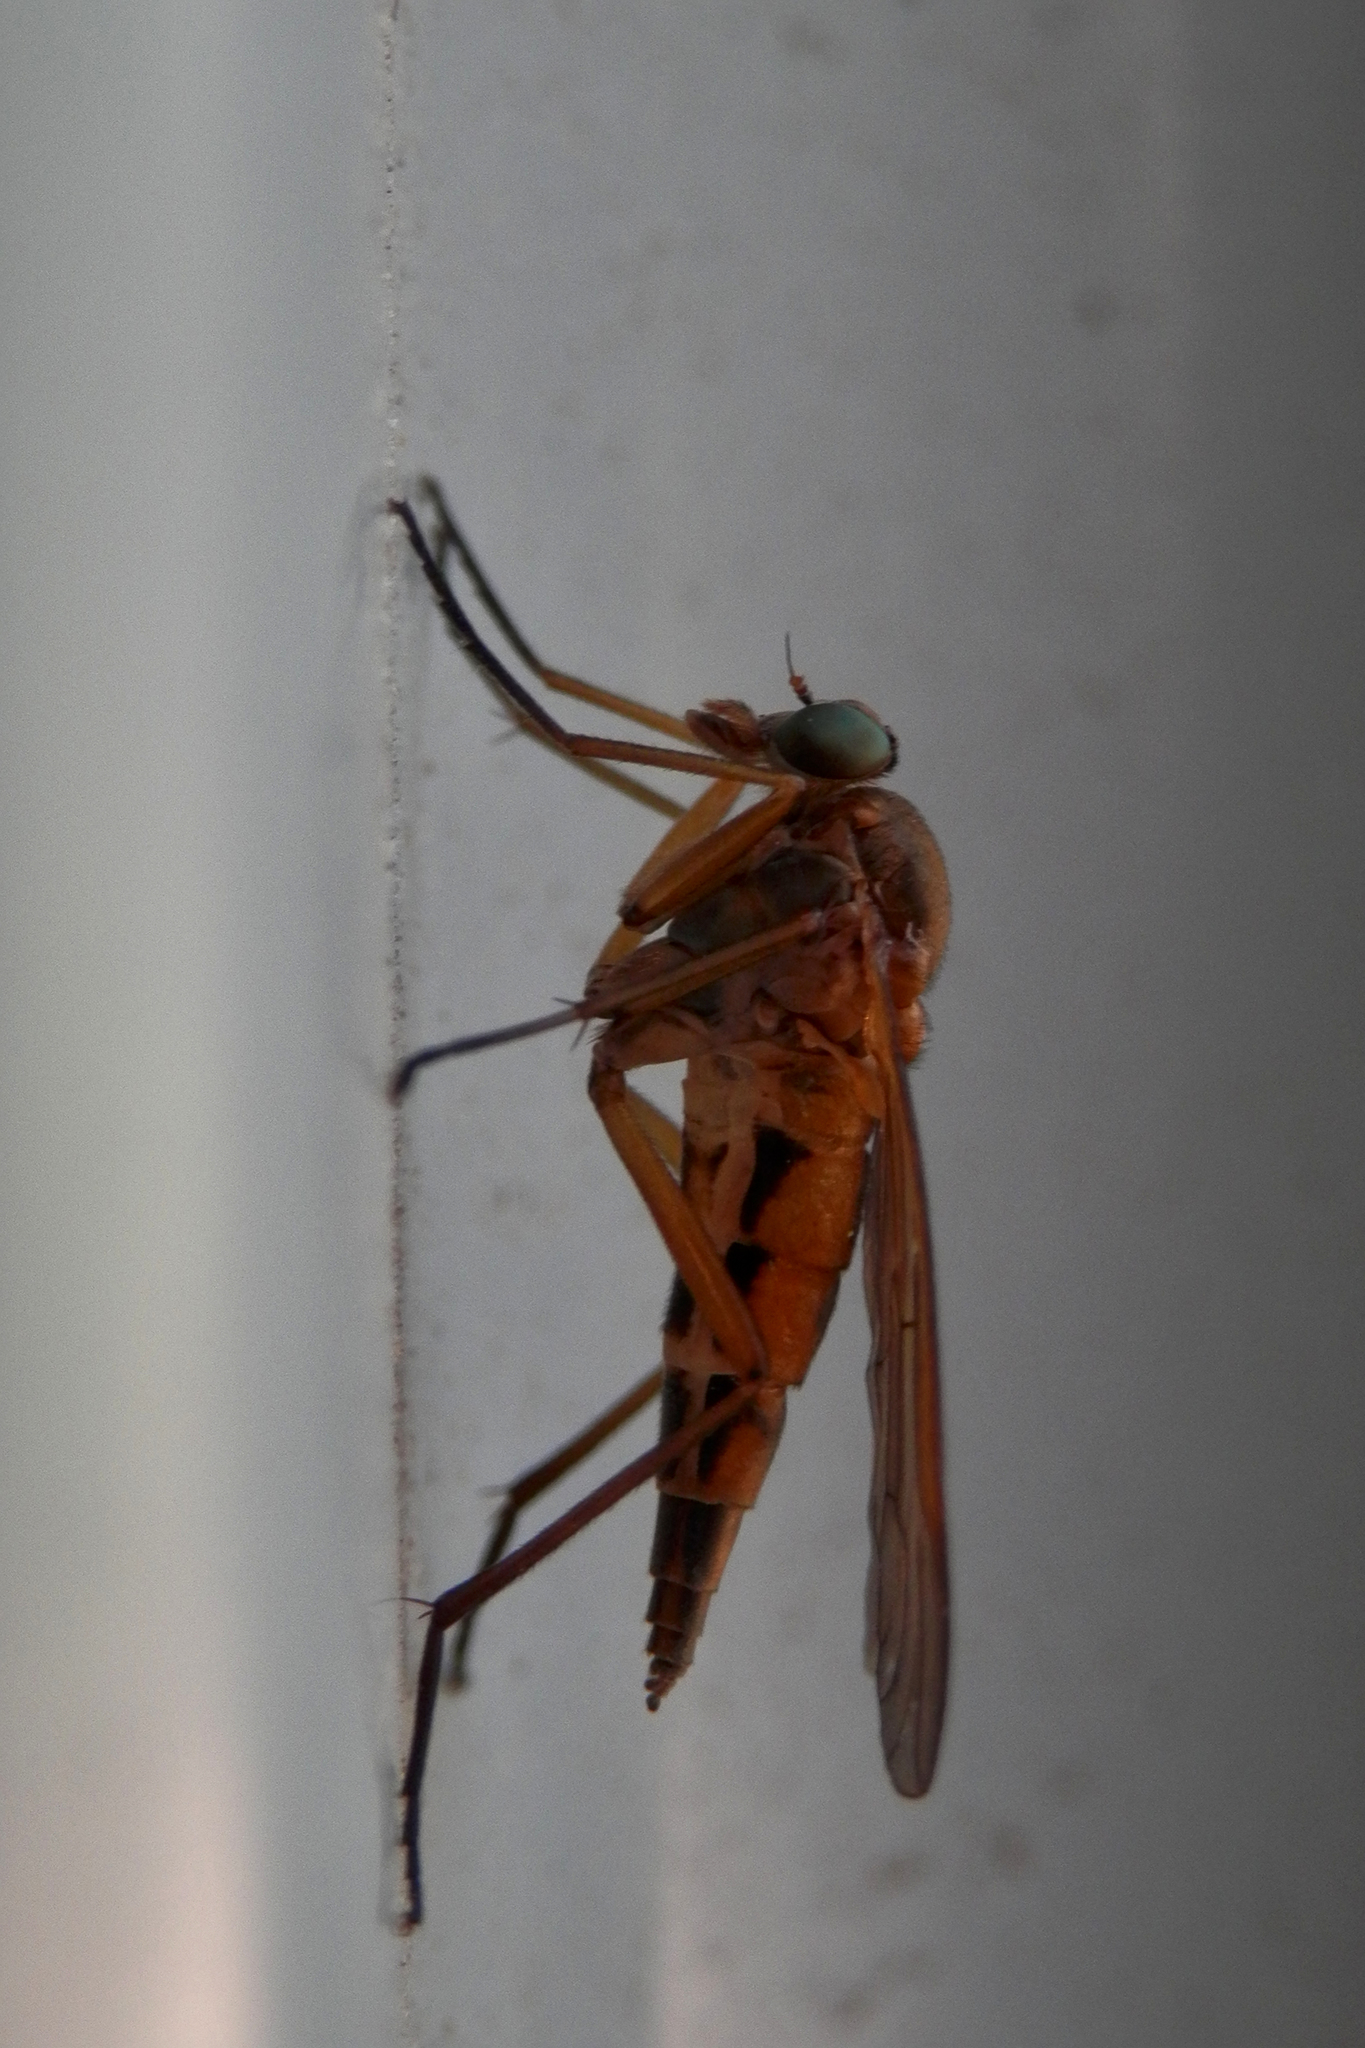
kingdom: Animalia
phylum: Arthropoda
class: Insecta
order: Diptera
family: Rhagionidae
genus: Rhagio
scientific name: Rhagio tringaria
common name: Marsh snipefly
